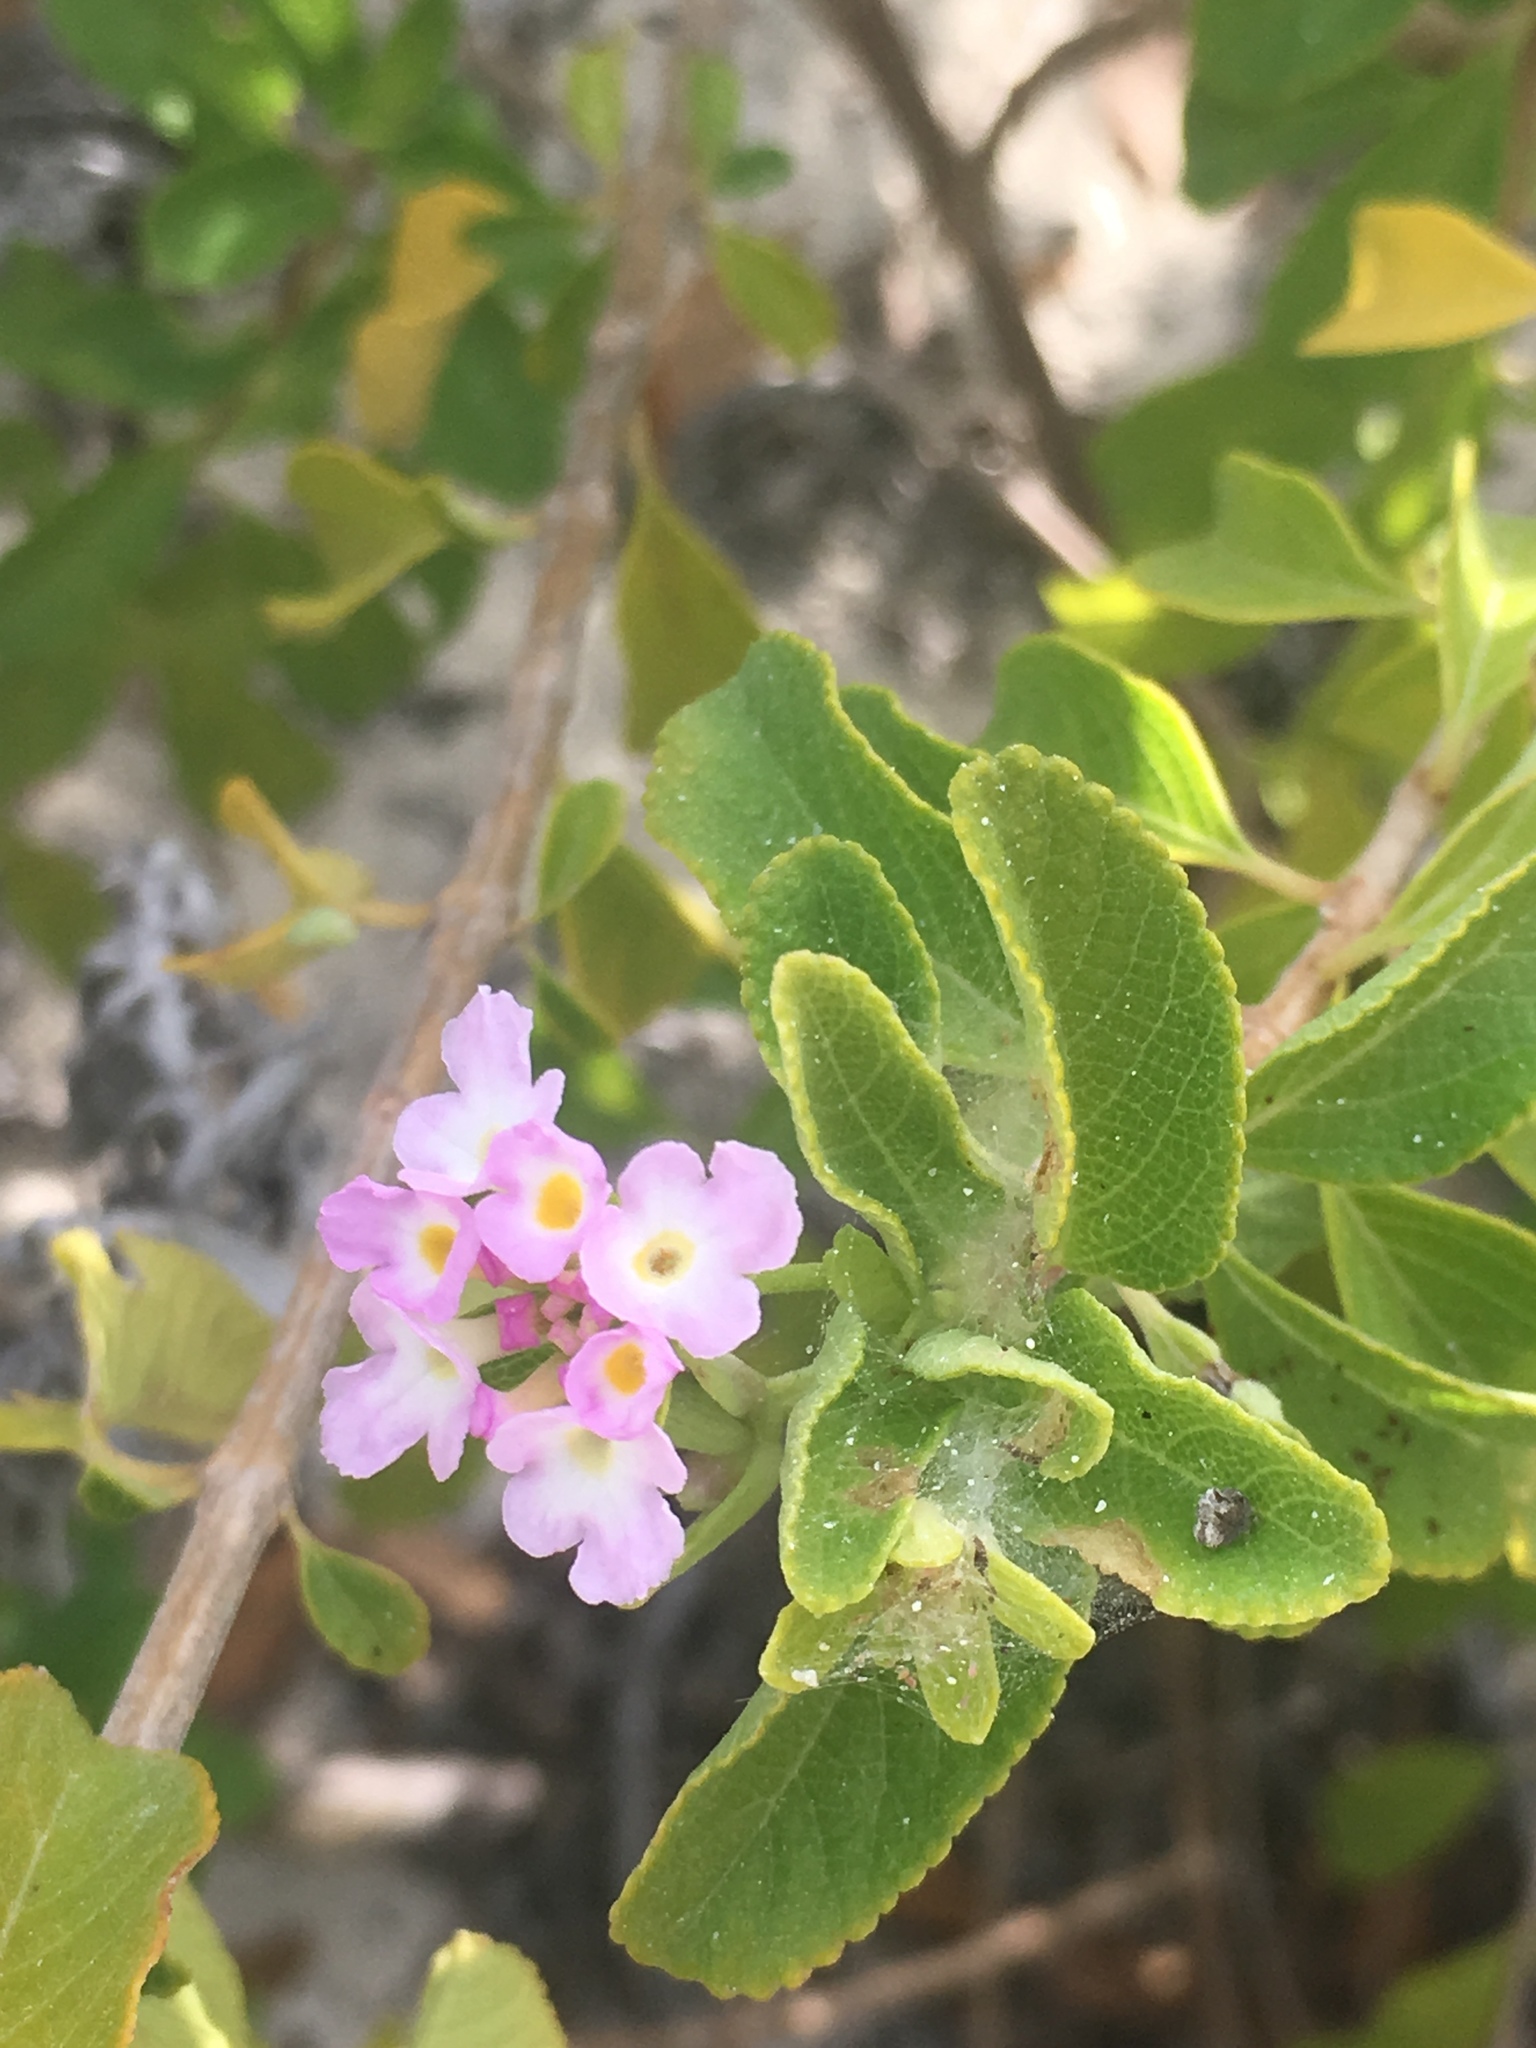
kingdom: Plantae
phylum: Tracheophyta
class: Magnoliopsida
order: Lamiales
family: Verbenaceae
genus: Lantana
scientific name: Lantana involucrata
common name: Black sage
